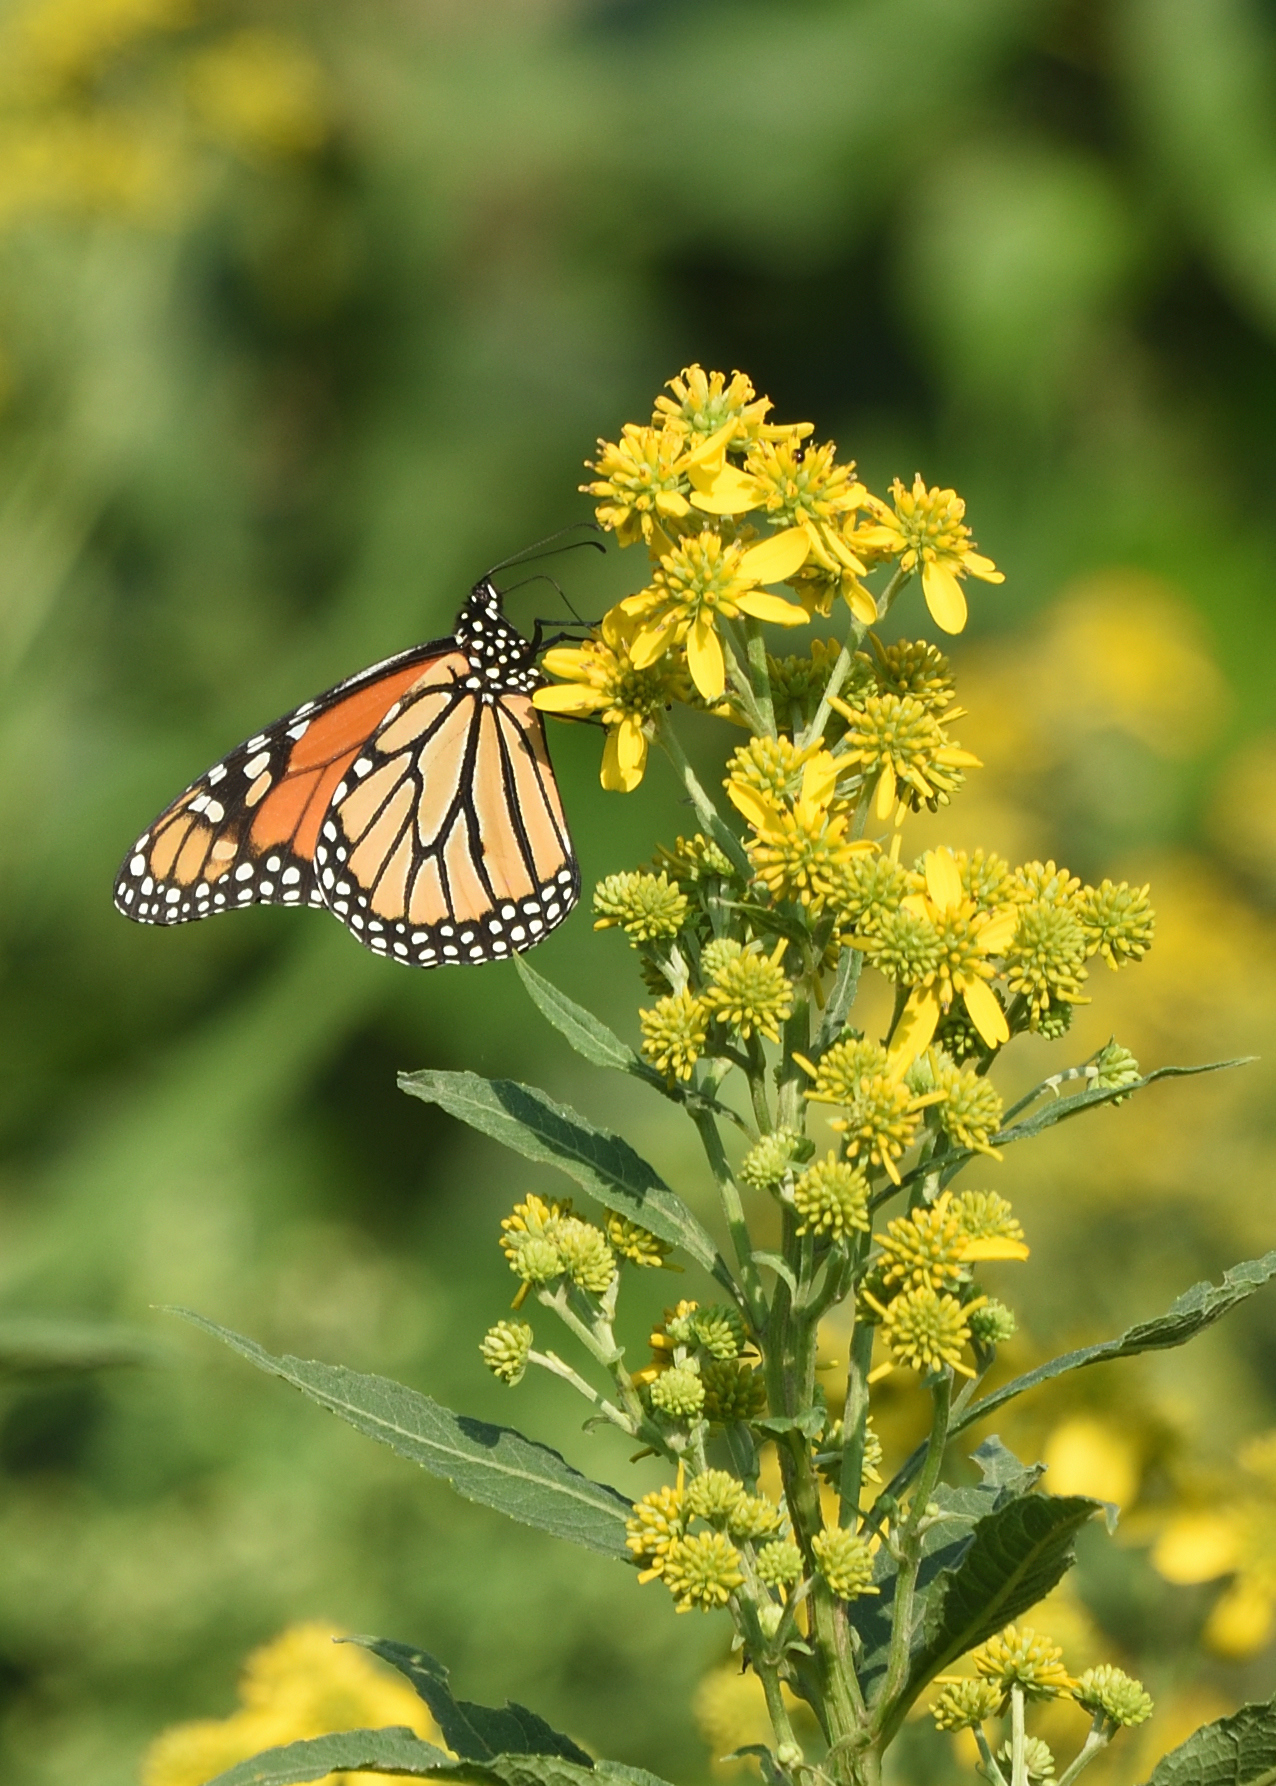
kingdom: Animalia
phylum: Arthropoda
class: Insecta
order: Lepidoptera
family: Nymphalidae
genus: Danaus
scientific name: Danaus plexippus
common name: Monarch
